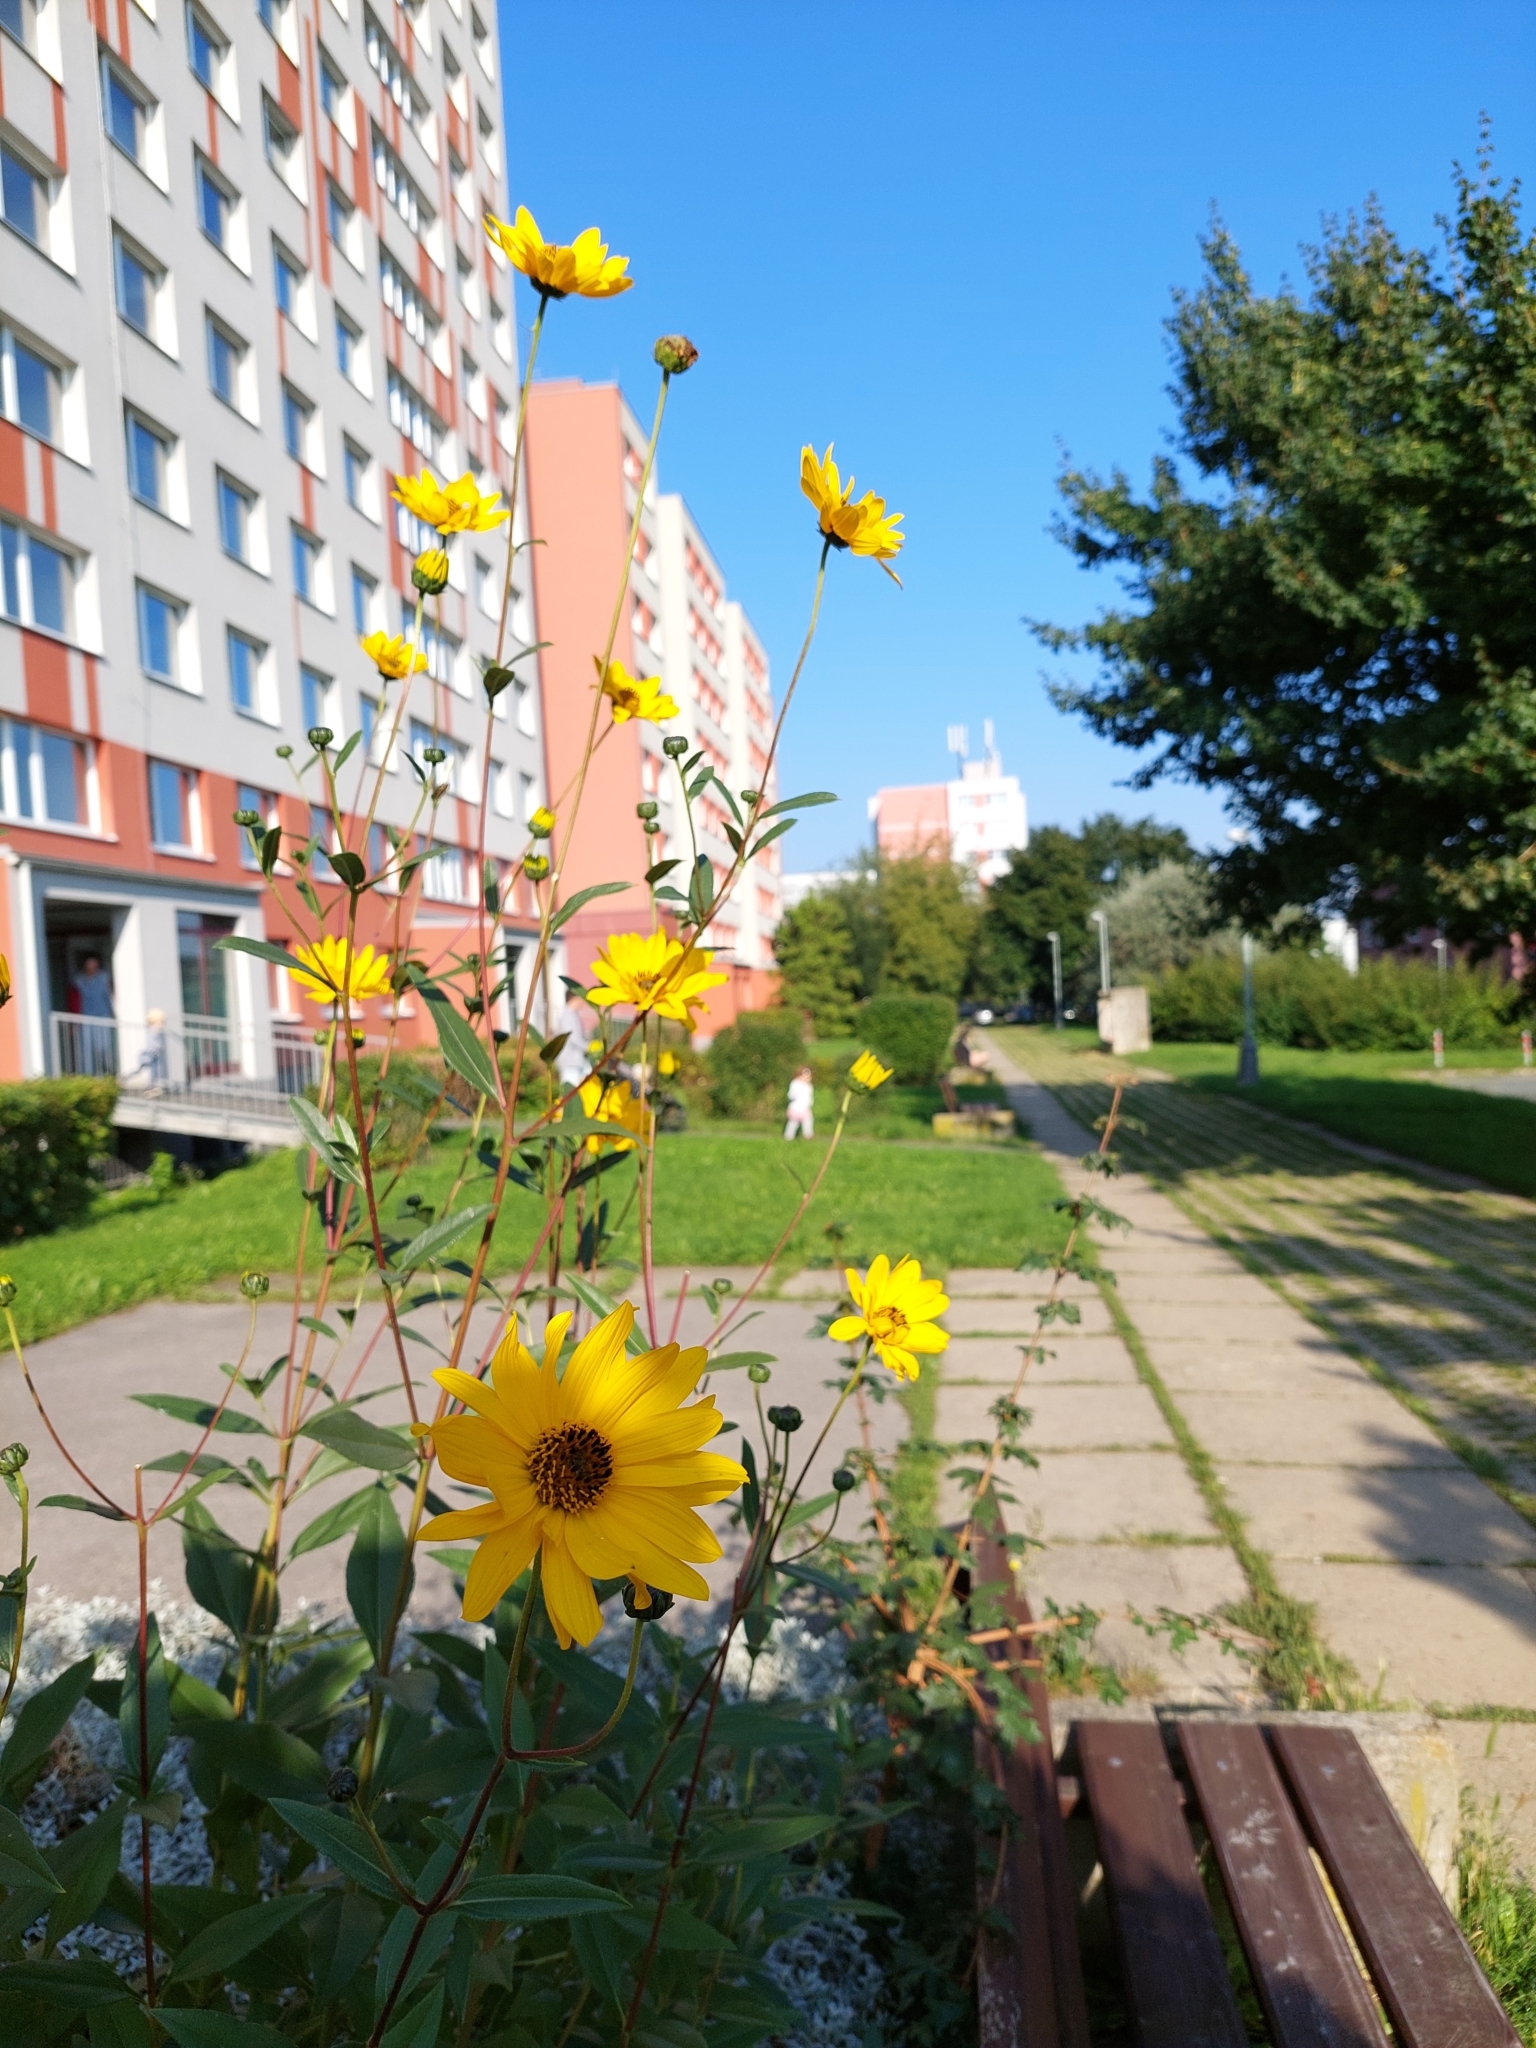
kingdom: Plantae
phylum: Tracheophyta
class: Magnoliopsida
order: Asterales
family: Asteraceae
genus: Helianthus
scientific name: Helianthus tuberosus
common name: Jerusalem artichoke
